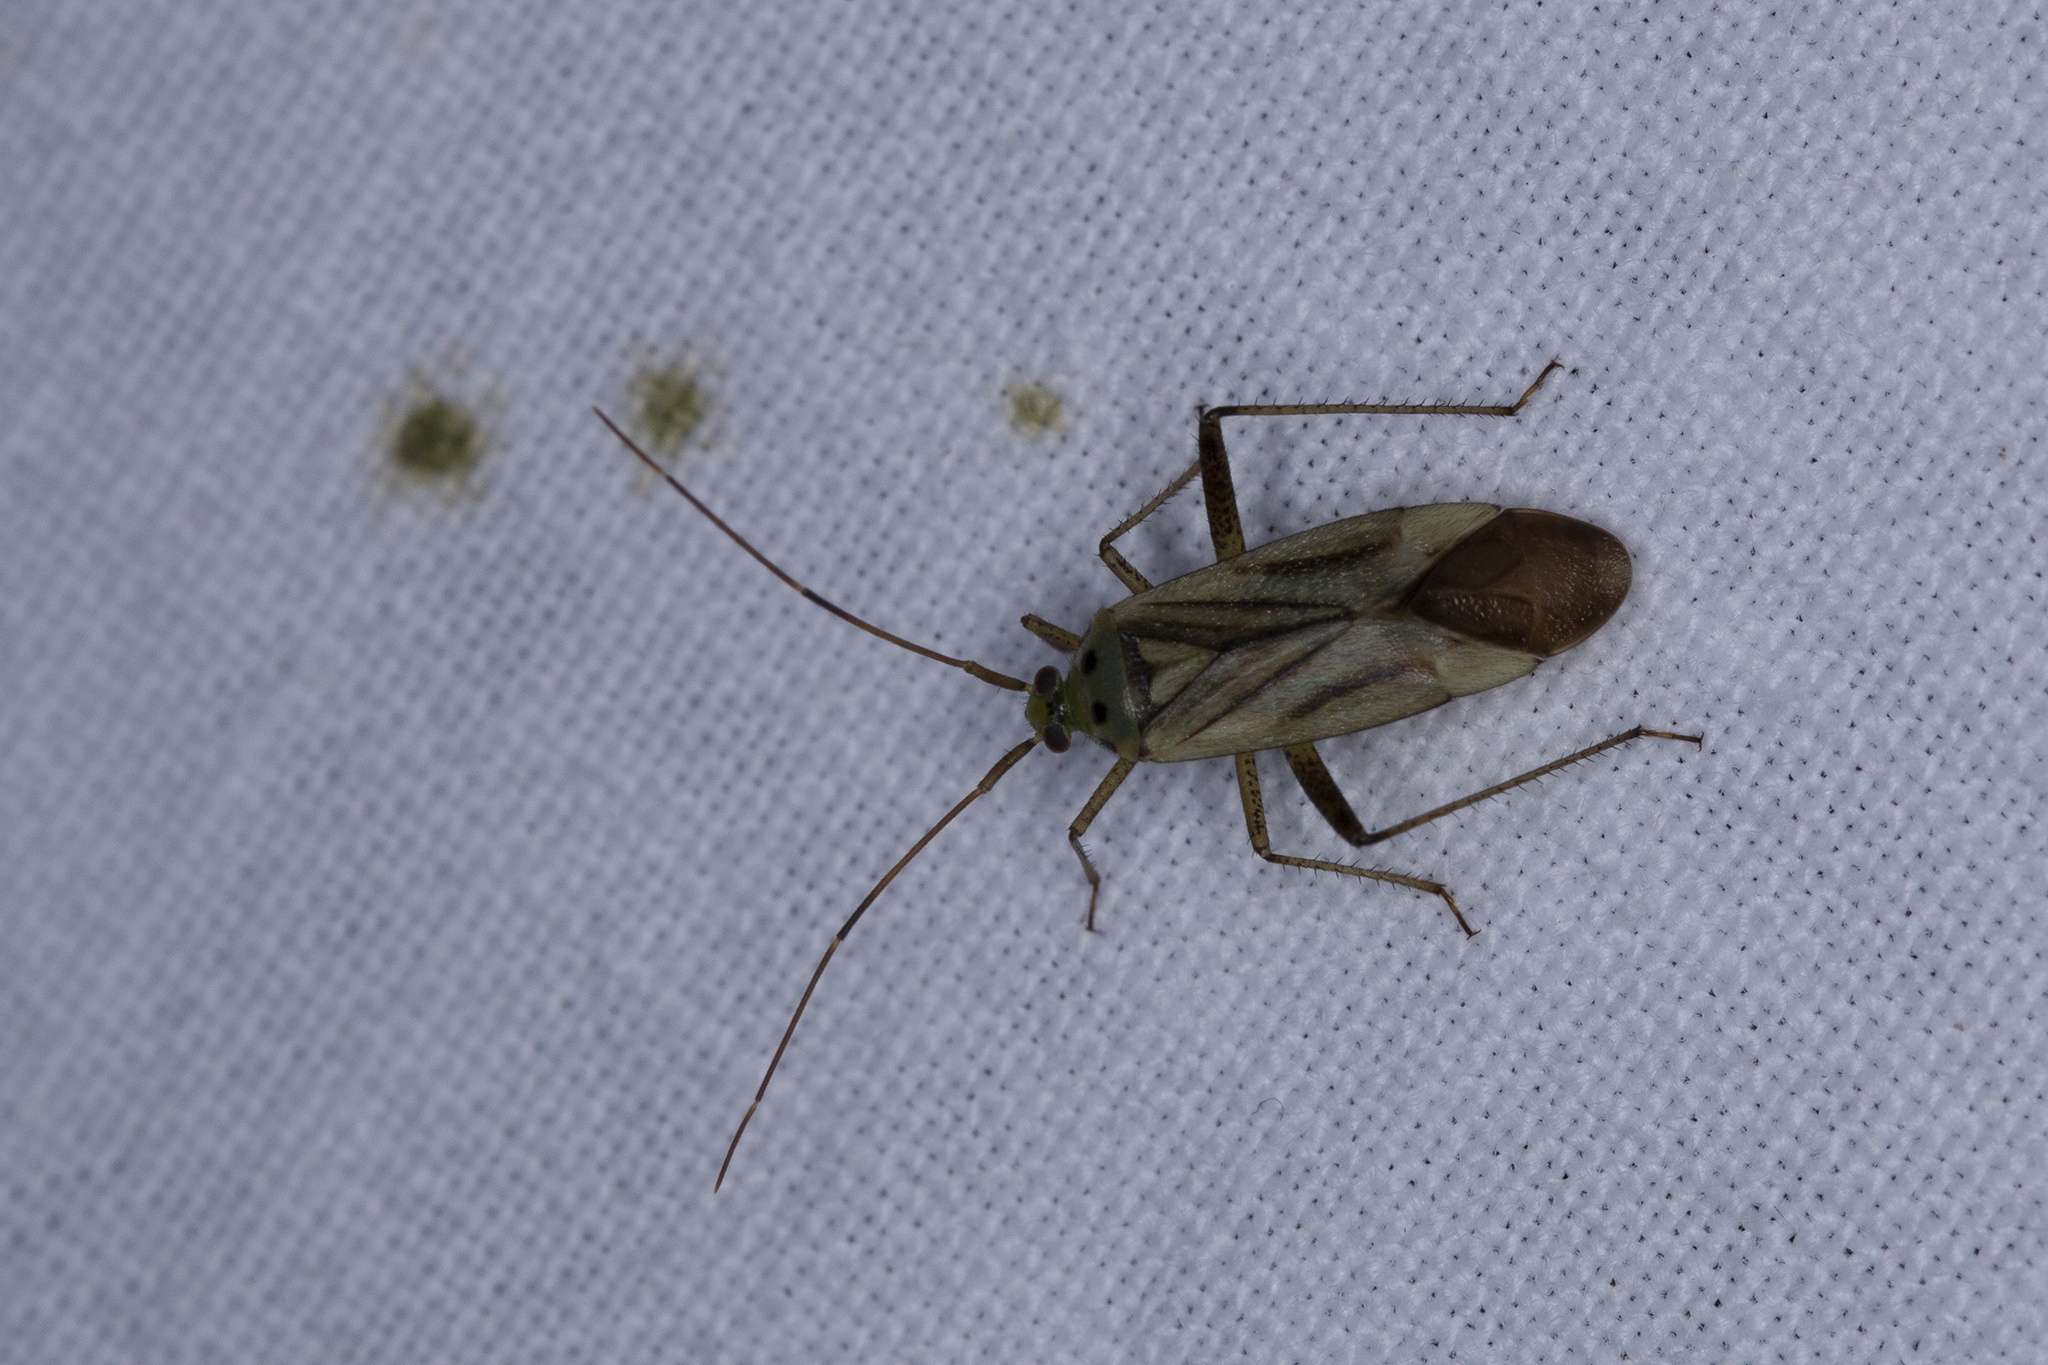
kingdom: Animalia
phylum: Arthropoda
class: Insecta
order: Hemiptera
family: Miridae
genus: Adelphocoris
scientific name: Adelphocoris quadripunctatus
